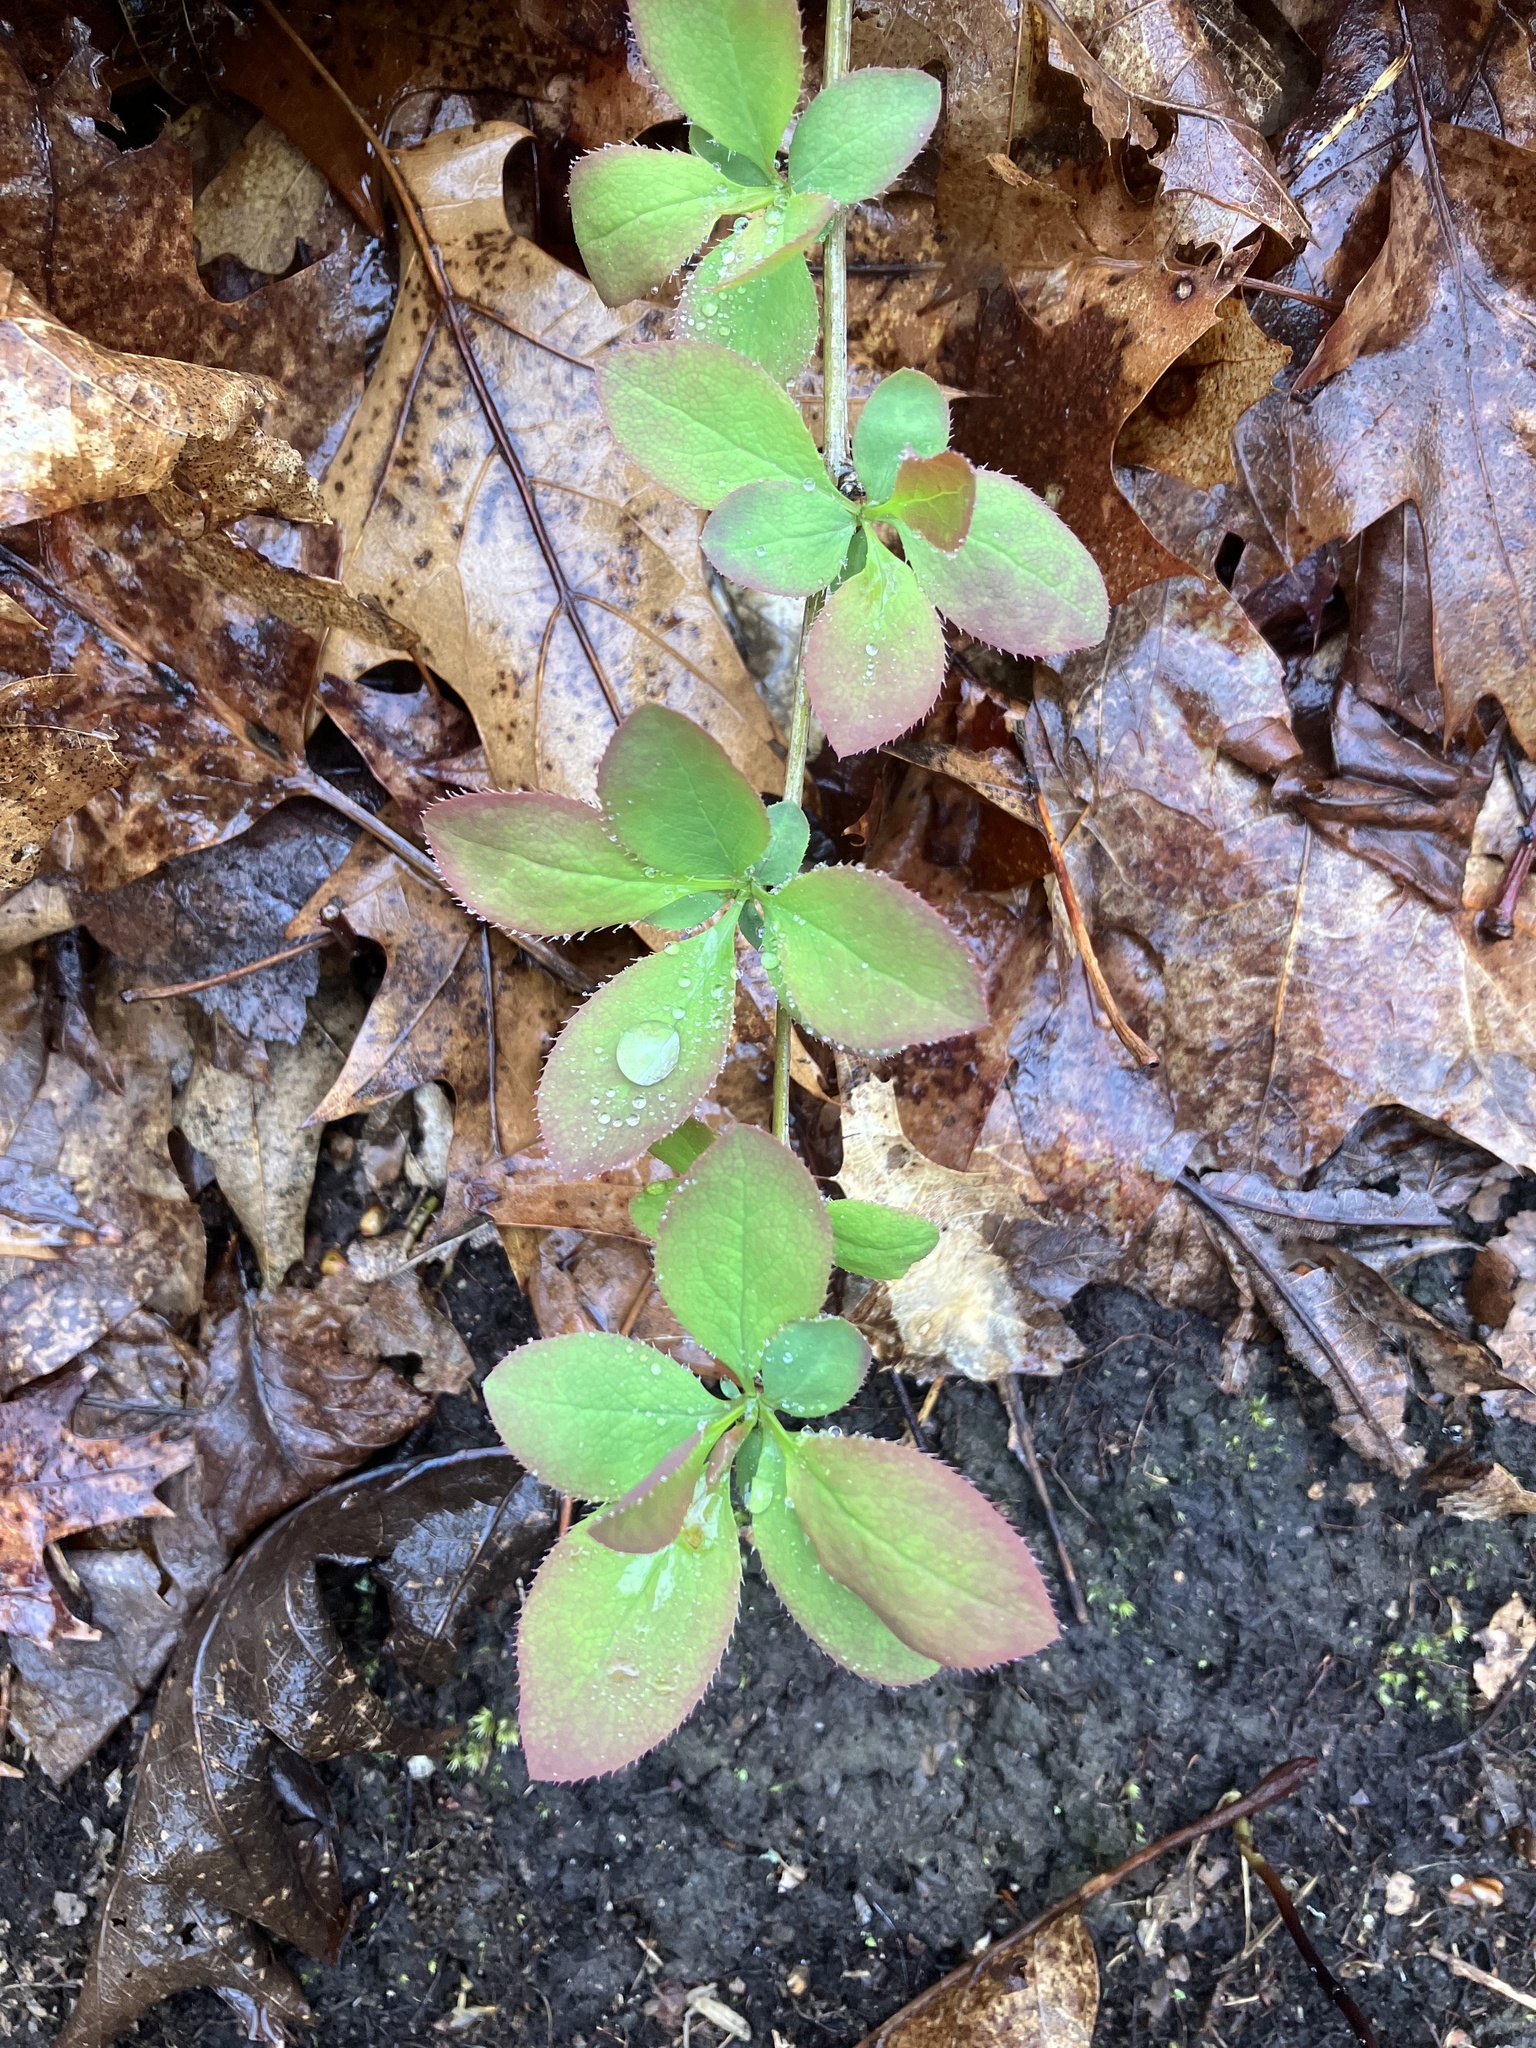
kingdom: Plantae
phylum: Tracheophyta
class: Magnoliopsida
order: Ranunculales
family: Berberidaceae
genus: Berberis
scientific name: Berberis vulgaris
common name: Barberry
